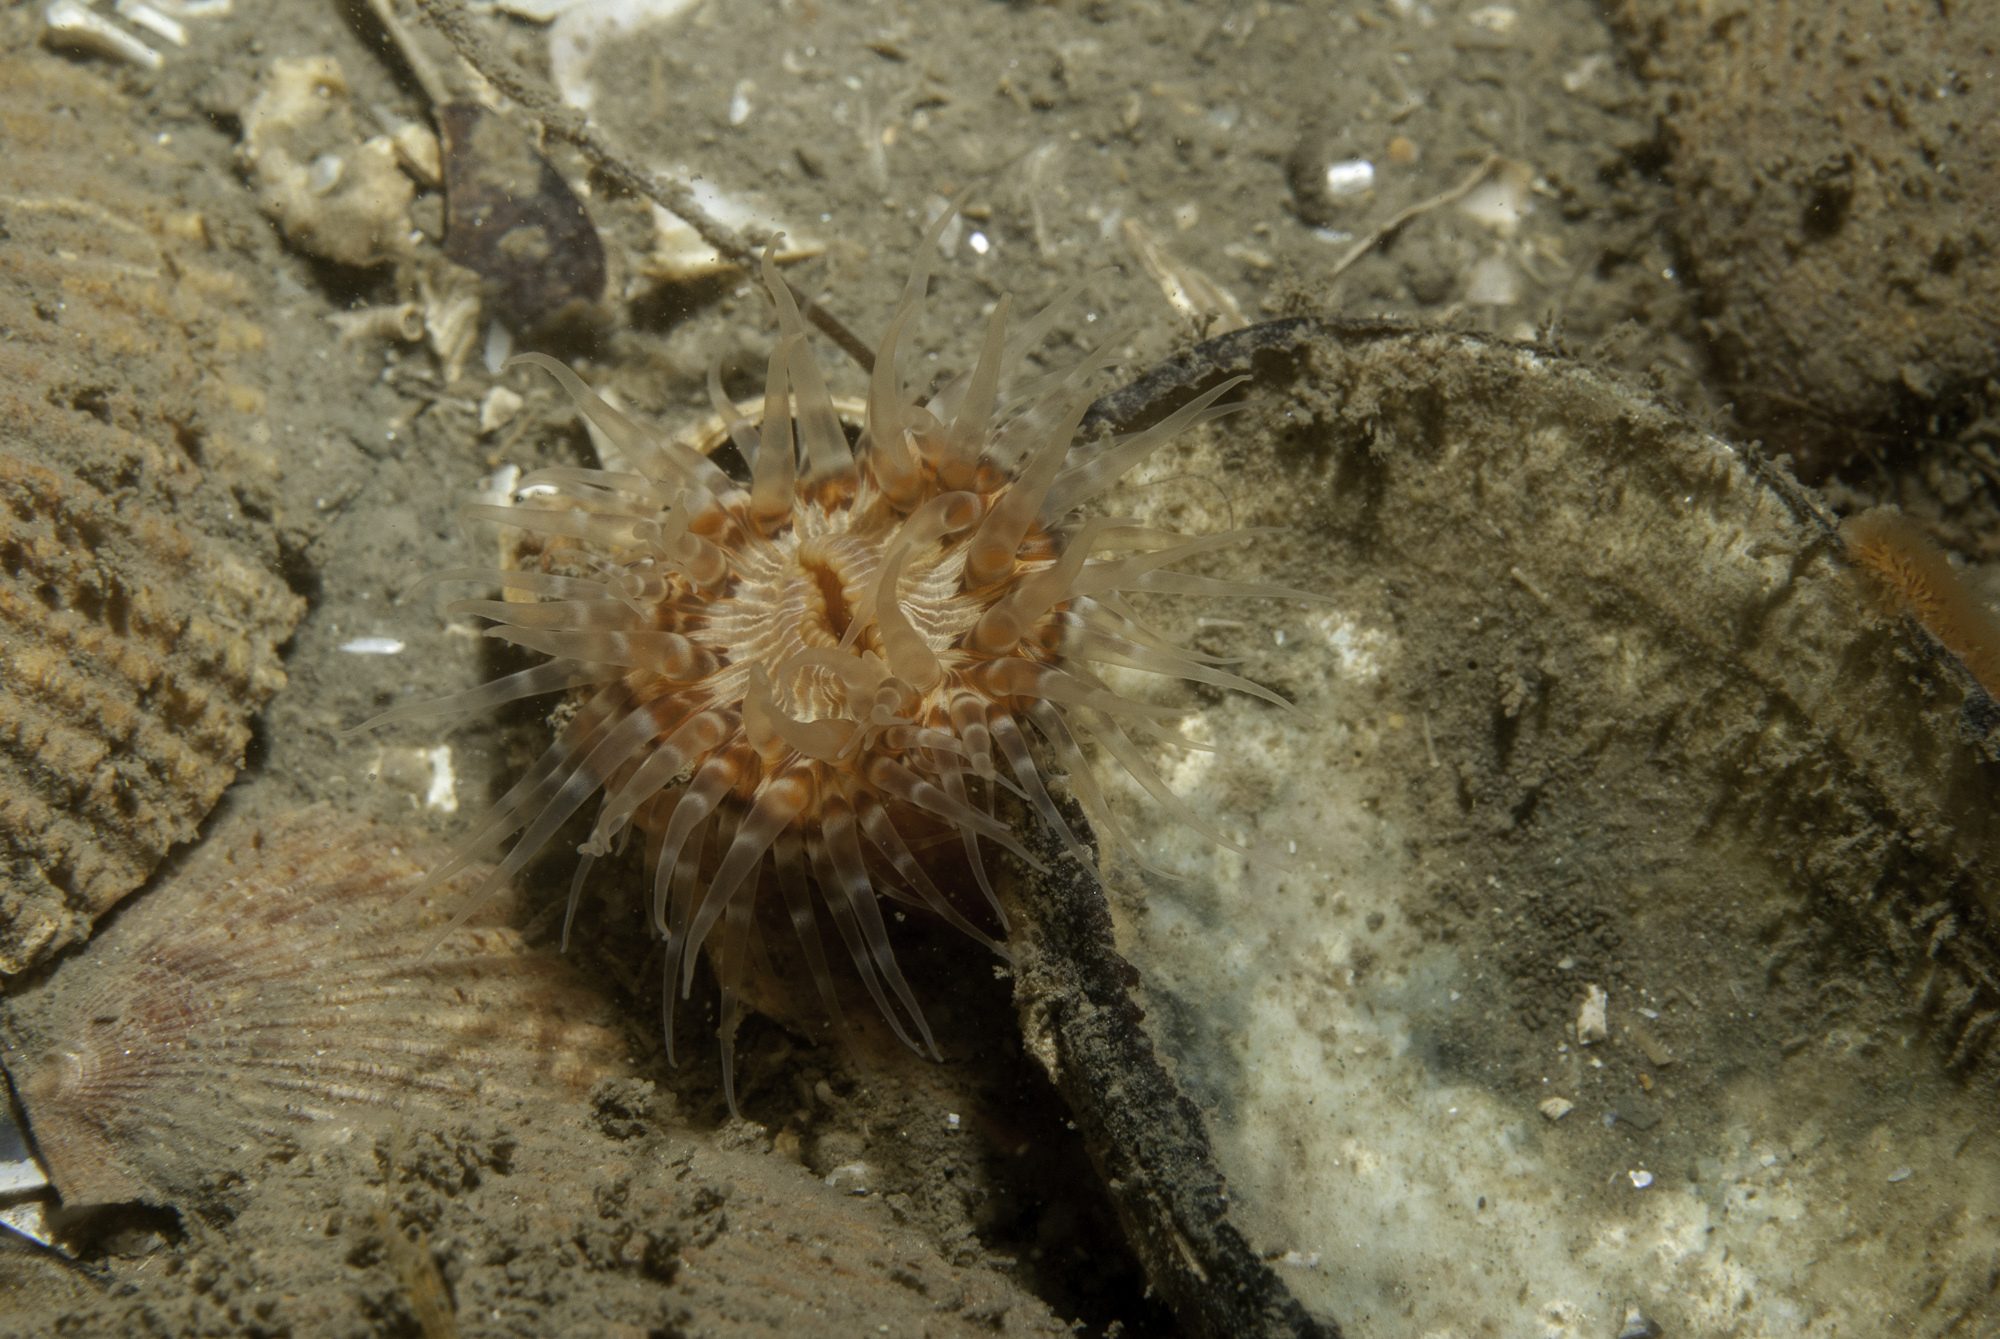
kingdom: Animalia
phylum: Cnidaria
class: Anthozoa
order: Actiniaria
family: Sagartiidae
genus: Sagartia
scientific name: Sagartia lacerata
